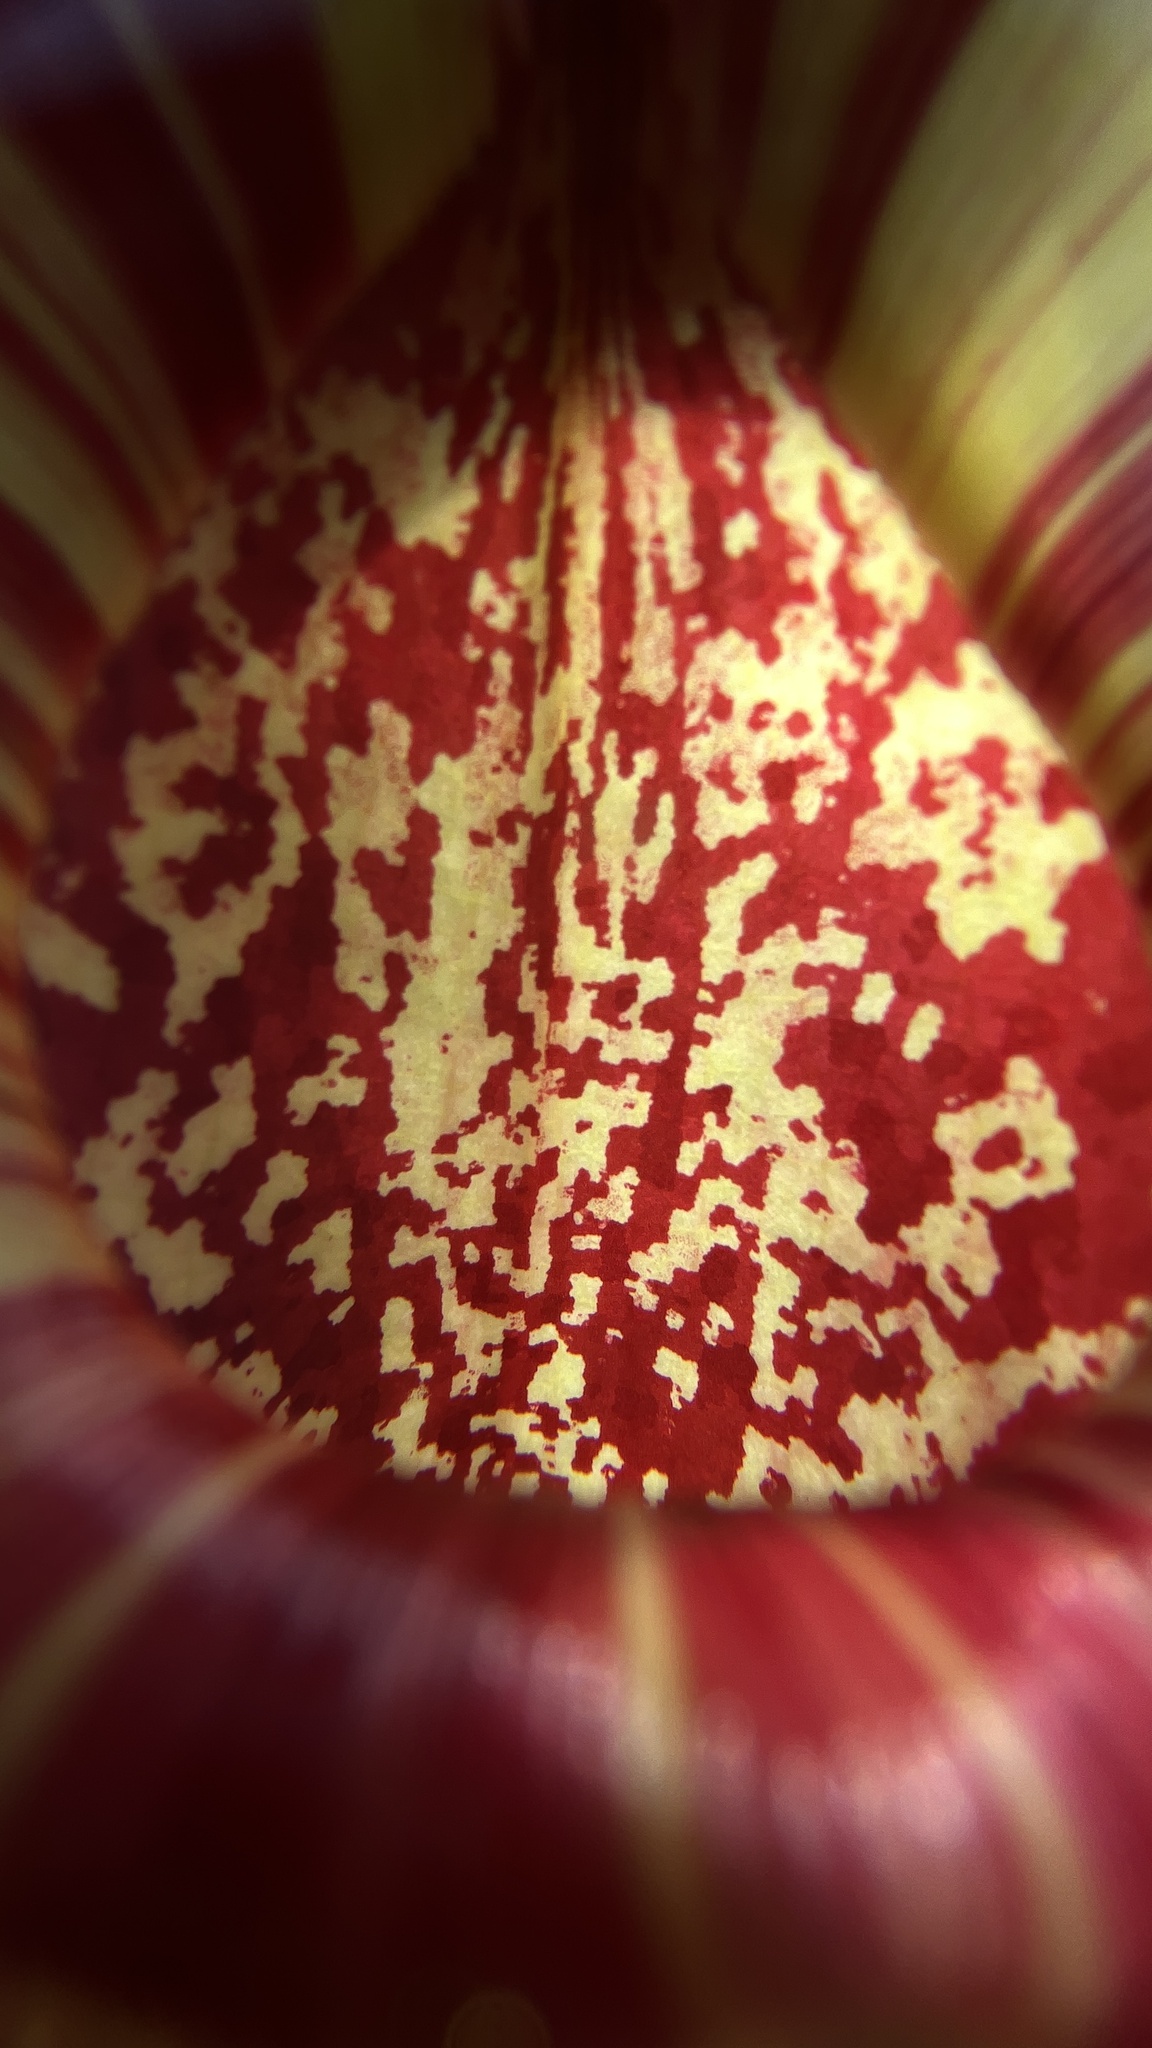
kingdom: Plantae
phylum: Tracheophyta
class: Magnoliopsida
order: Caryophyllales
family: Nepenthaceae
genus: Nepenthes
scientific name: Nepenthes bokorensis
